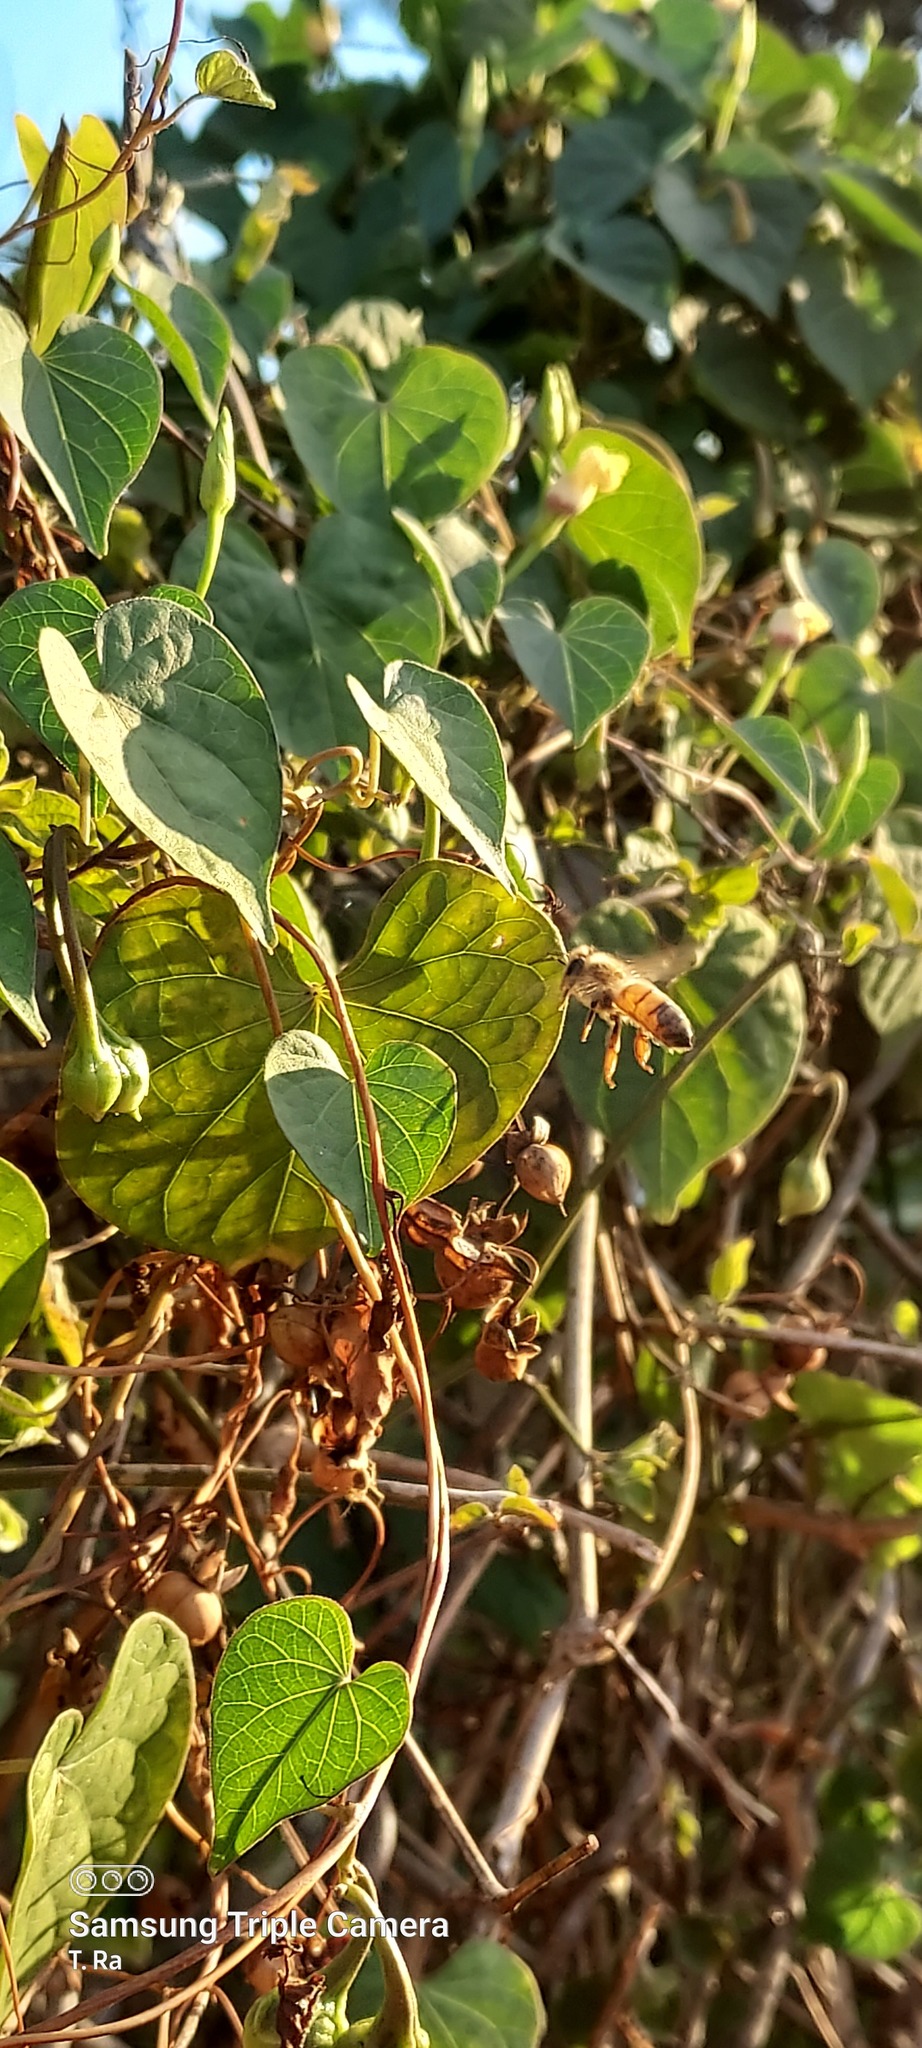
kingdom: Animalia
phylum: Arthropoda
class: Insecta
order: Hymenoptera
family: Apidae
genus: Apis
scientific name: Apis mellifera
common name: Honey bee
